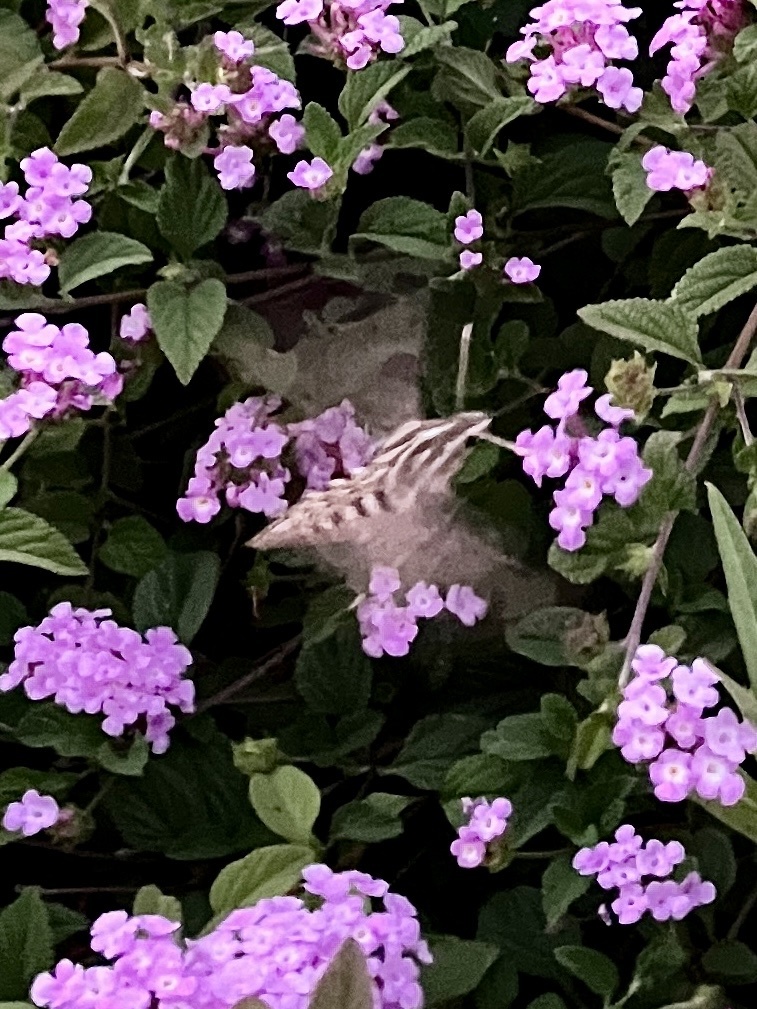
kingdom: Animalia
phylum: Arthropoda
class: Insecta
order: Lepidoptera
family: Sphingidae
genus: Hyles
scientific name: Hyles lineata
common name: White-lined sphinx
